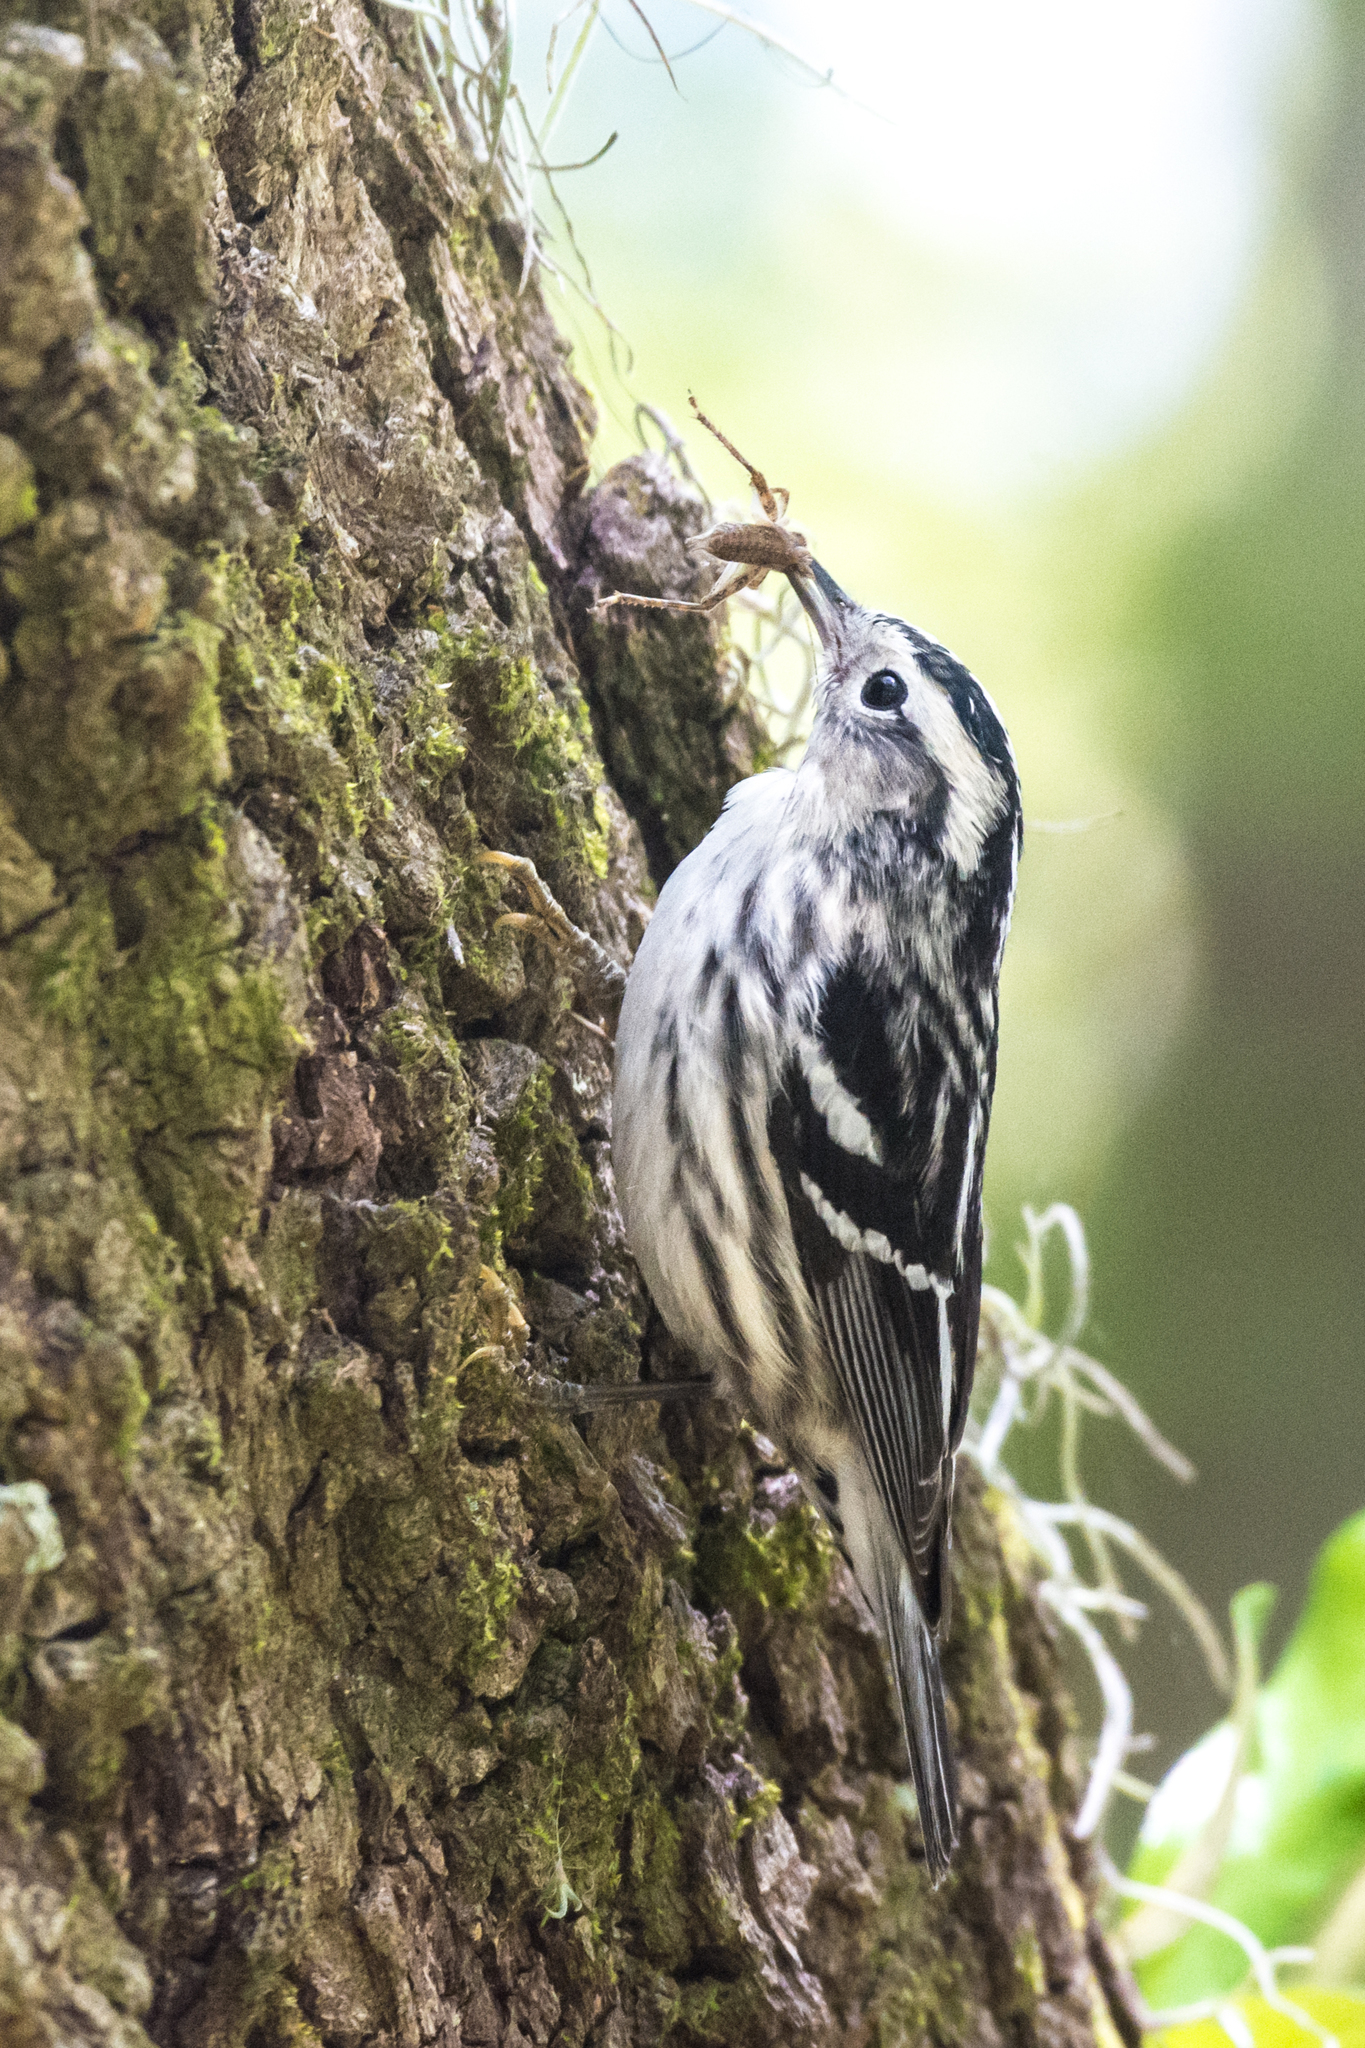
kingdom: Animalia
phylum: Chordata
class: Aves
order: Passeriformes
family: Parulidae
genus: Mniotilta
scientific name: Mniotilta varia
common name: Black-and-white warbler
